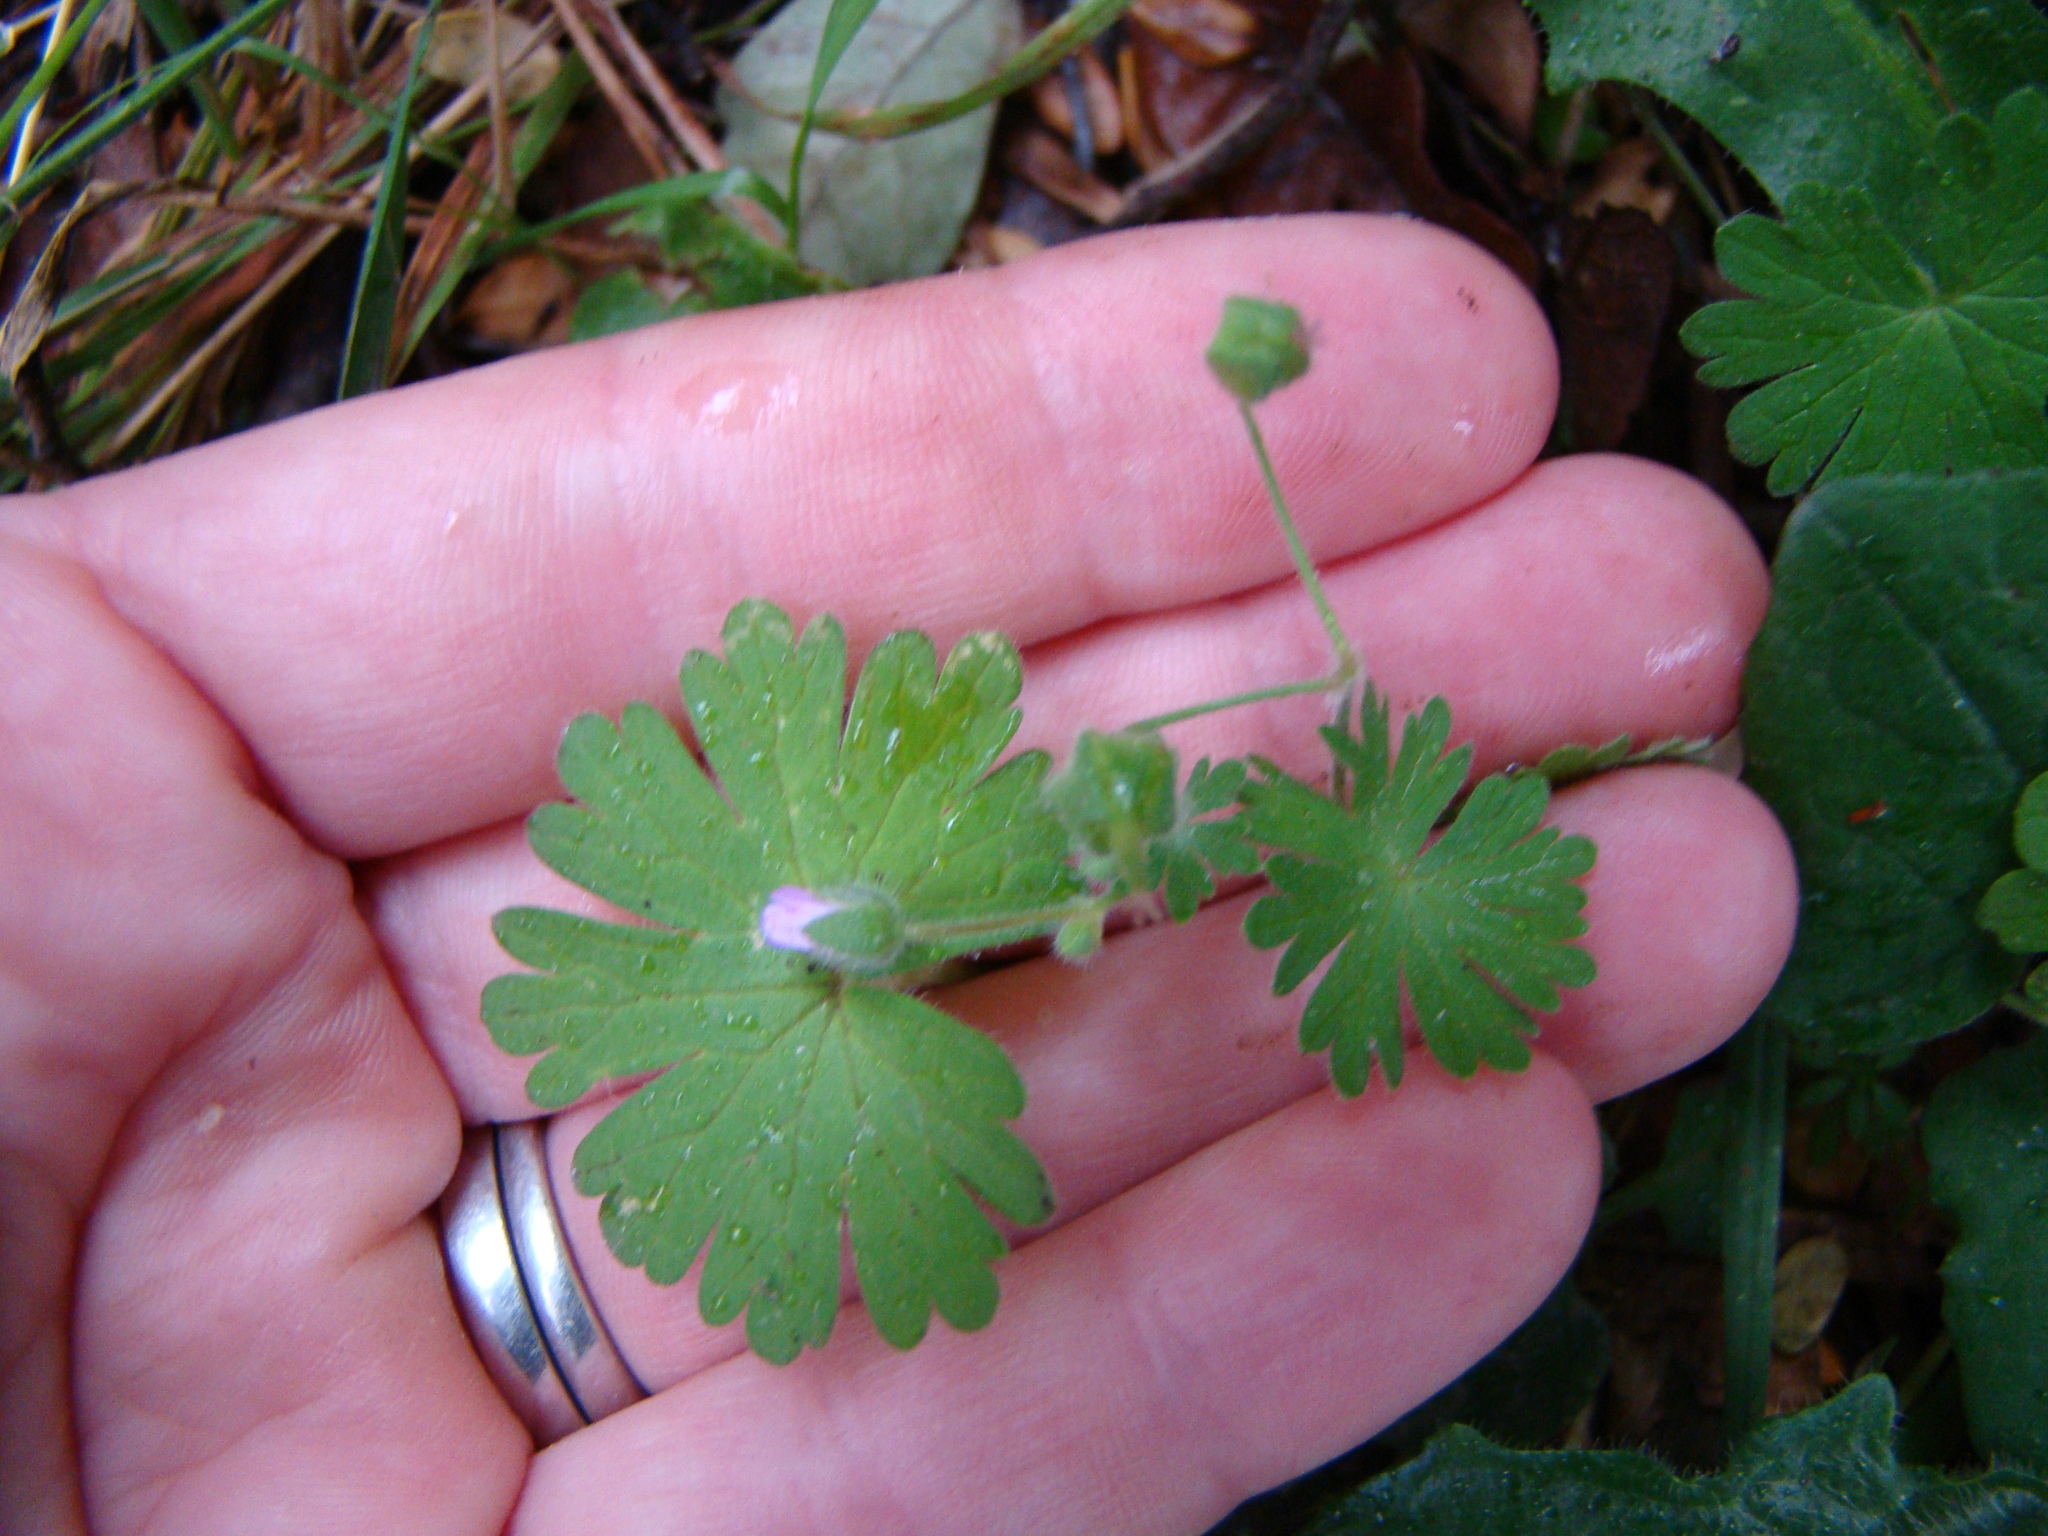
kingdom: Plantae
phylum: Tracheophyta
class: Magnoliopsida
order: Geraniales
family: Geraniaceae
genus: Geranium
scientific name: Geranium molle
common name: Dove's-foot crane's-bill
